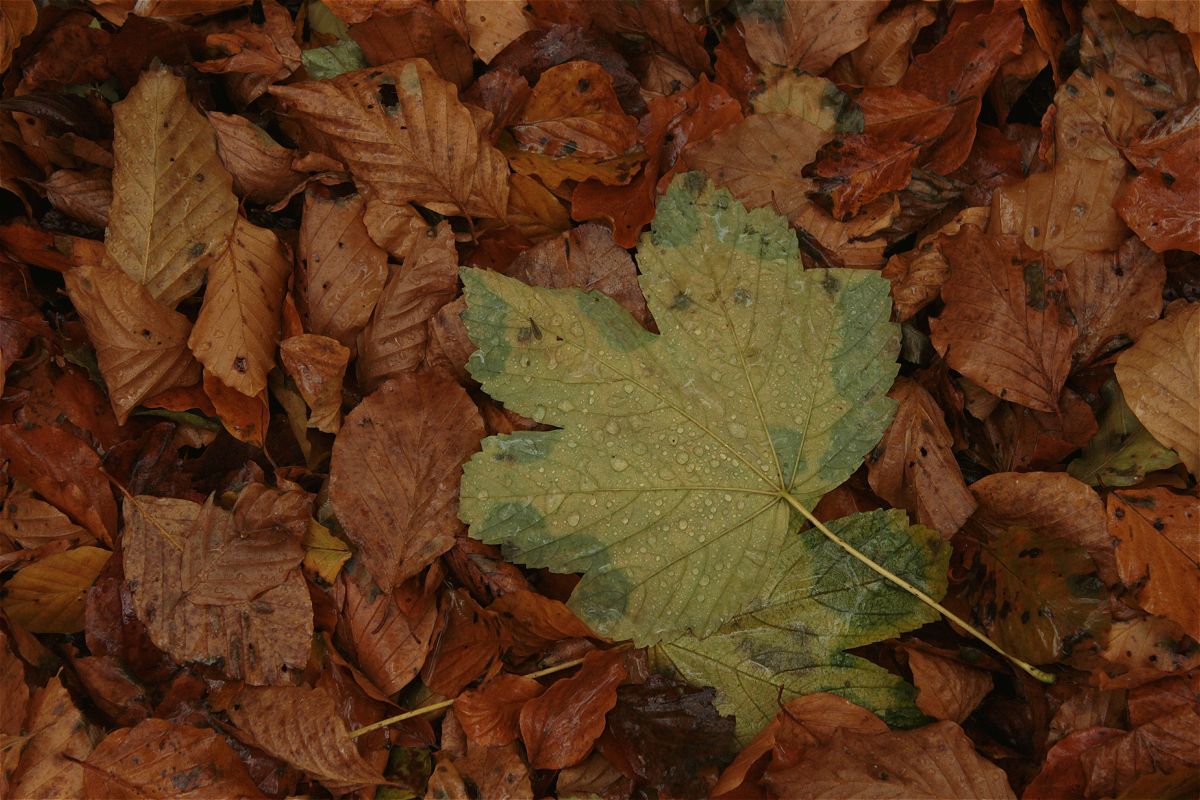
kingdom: Plantae
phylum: Tracheophyta
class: Magnoliopsida
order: Sapindales
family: Sapindaceae
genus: Acer
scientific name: Acer pseudoplatanus
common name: Sycamore
